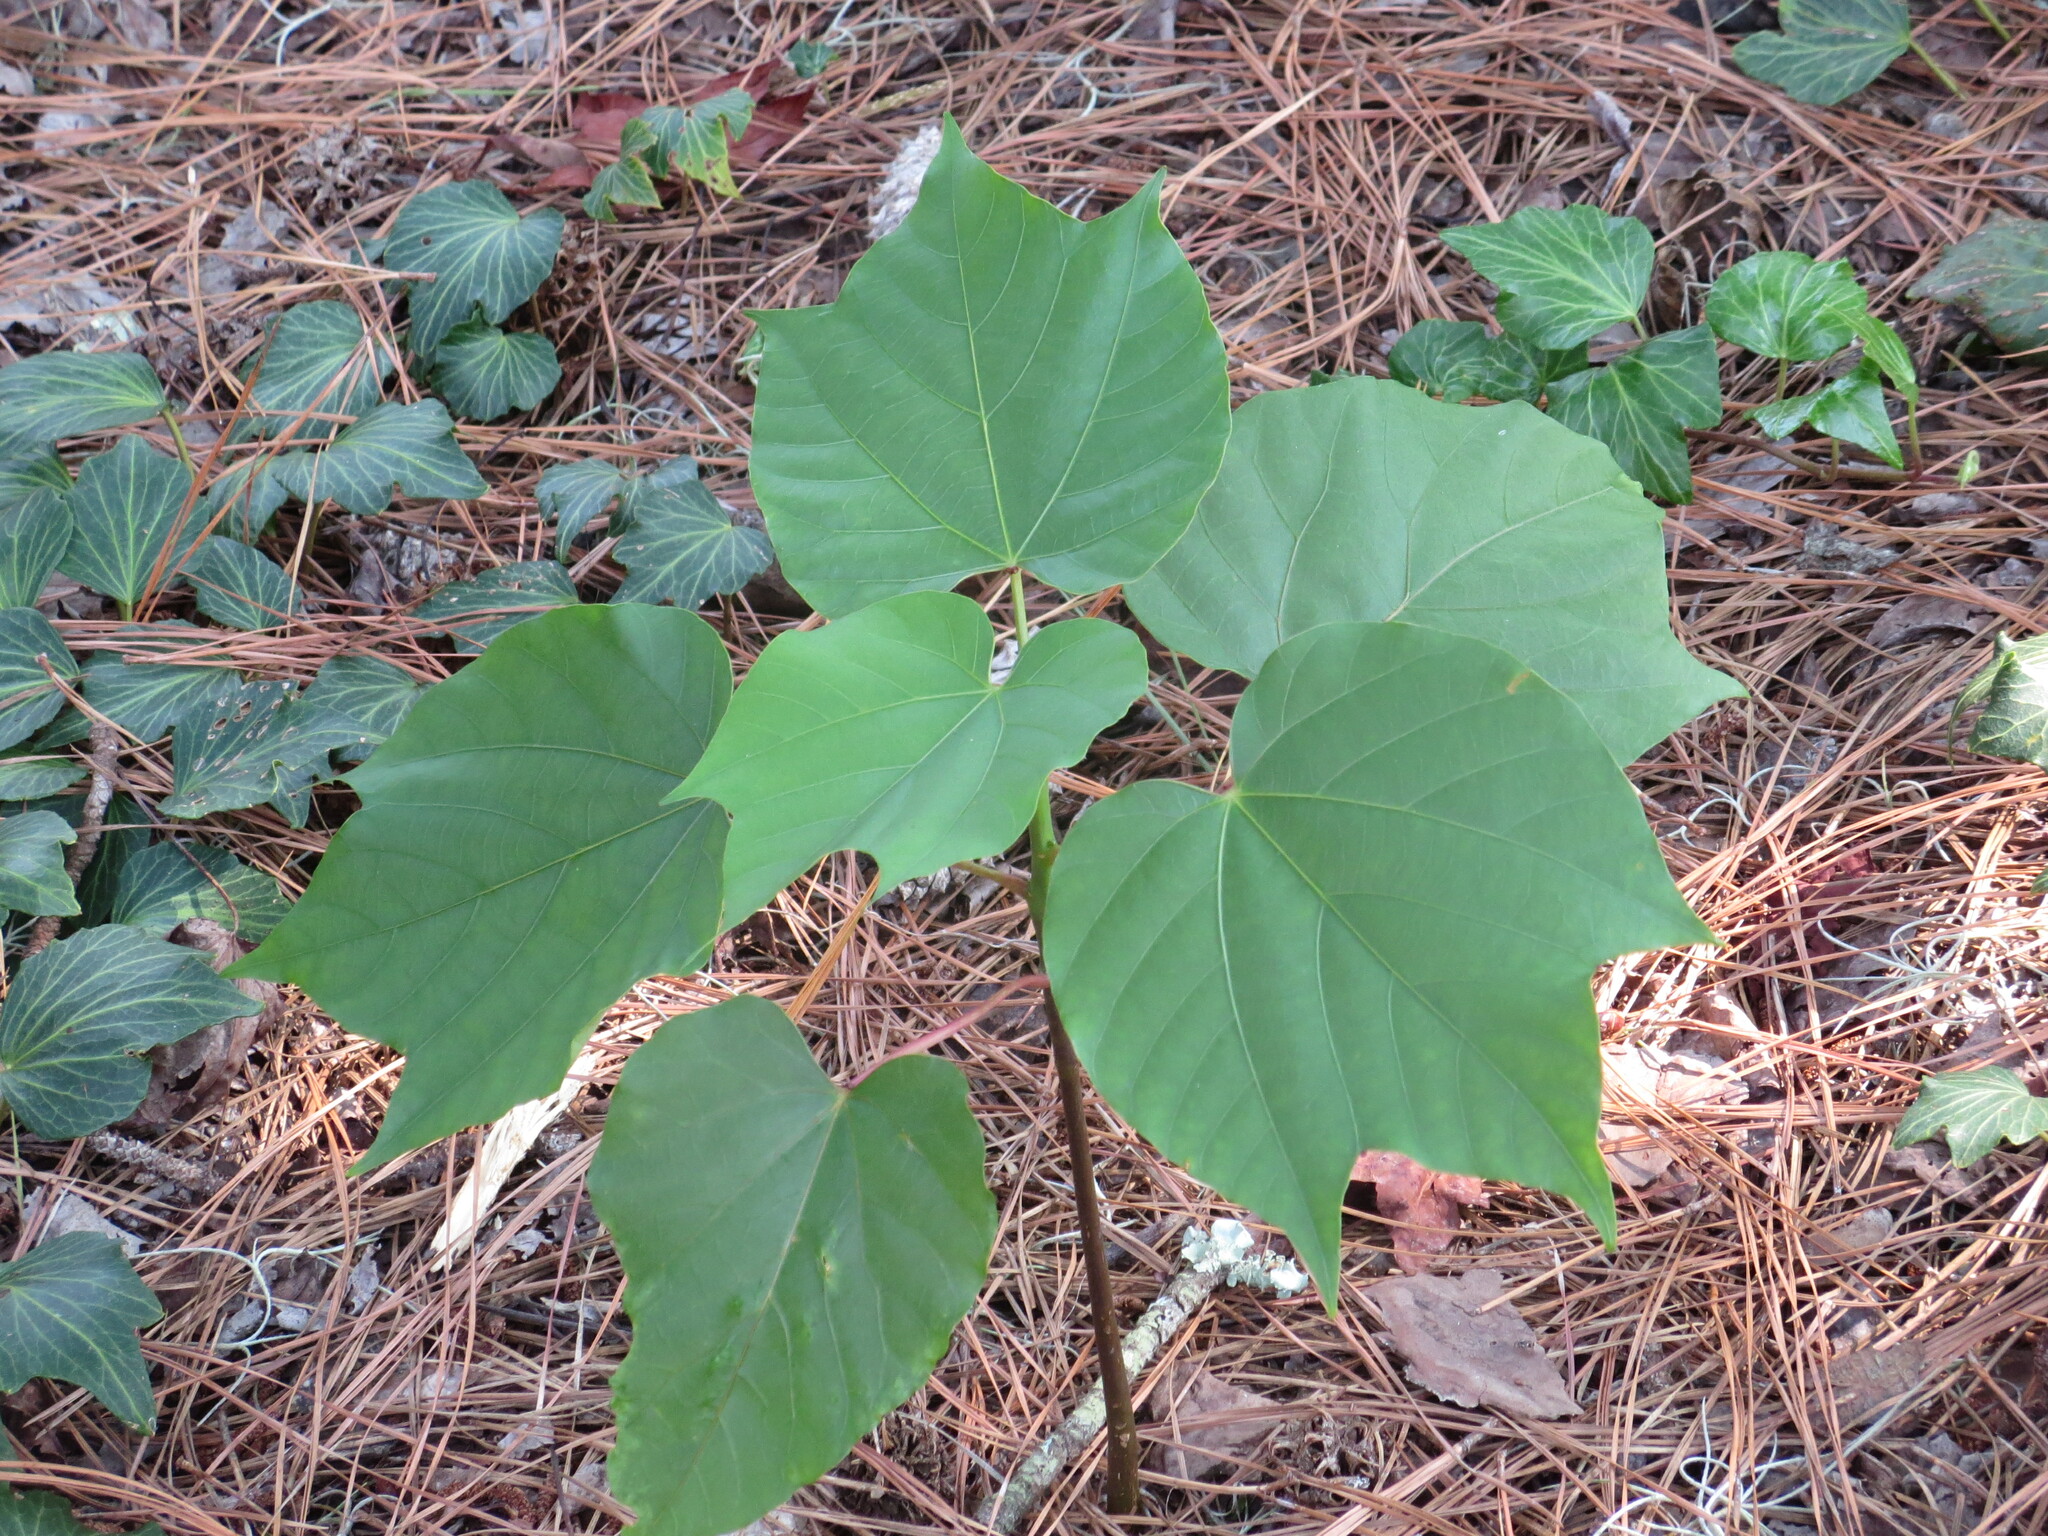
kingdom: Plantae
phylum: Tracheophyta
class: Magnoliopsida
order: Malpighiales
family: Euphorbiaceae
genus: Vernicia
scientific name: Vernicia fordii
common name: Tungoil tree
